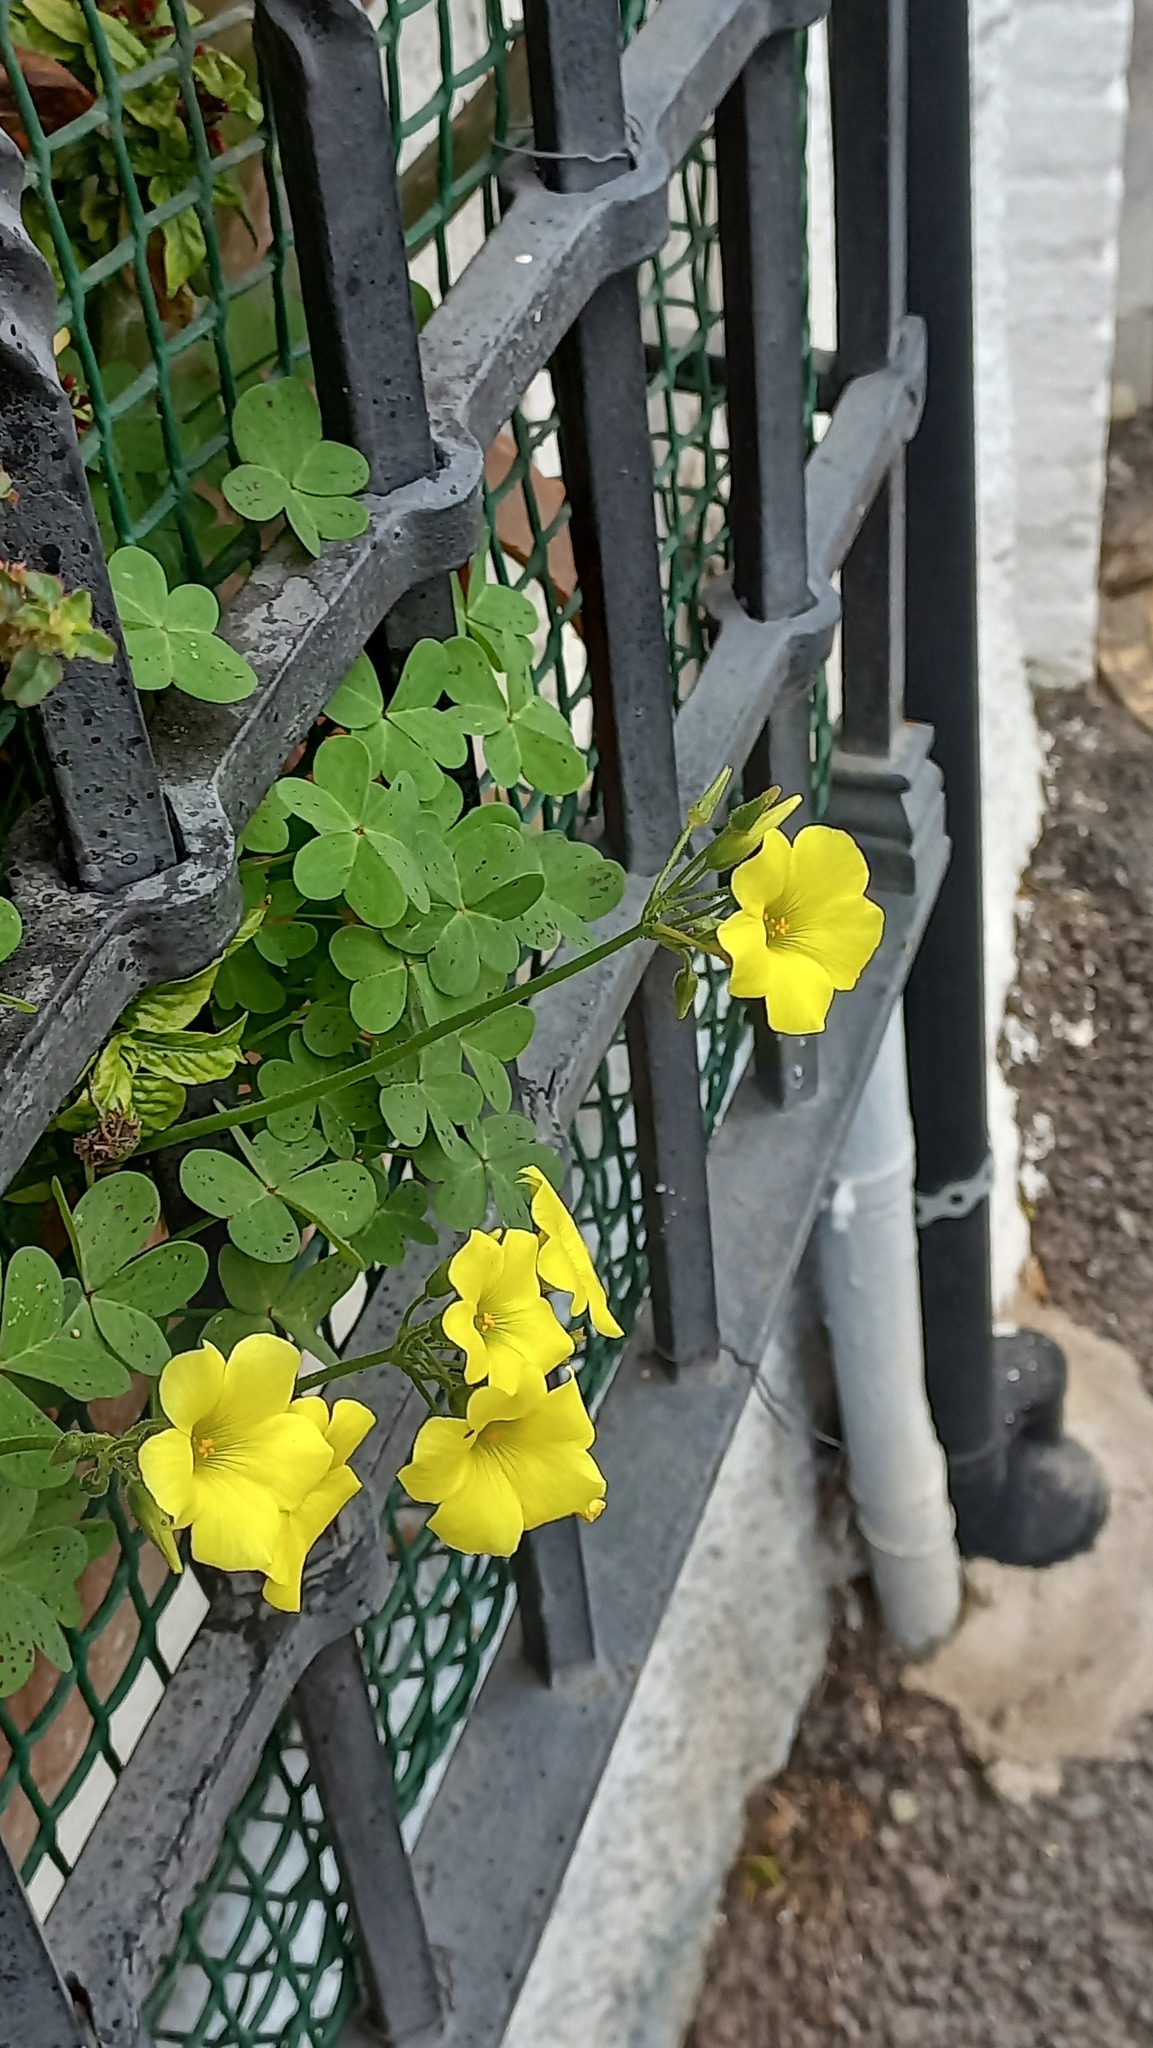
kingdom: Plantae
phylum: Tracheophyta
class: Magnoliopsida
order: Oxalidales
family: Oxalidaceae
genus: Oxalis
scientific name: Oxalis pes-caprae
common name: Bermuda-buttercup
